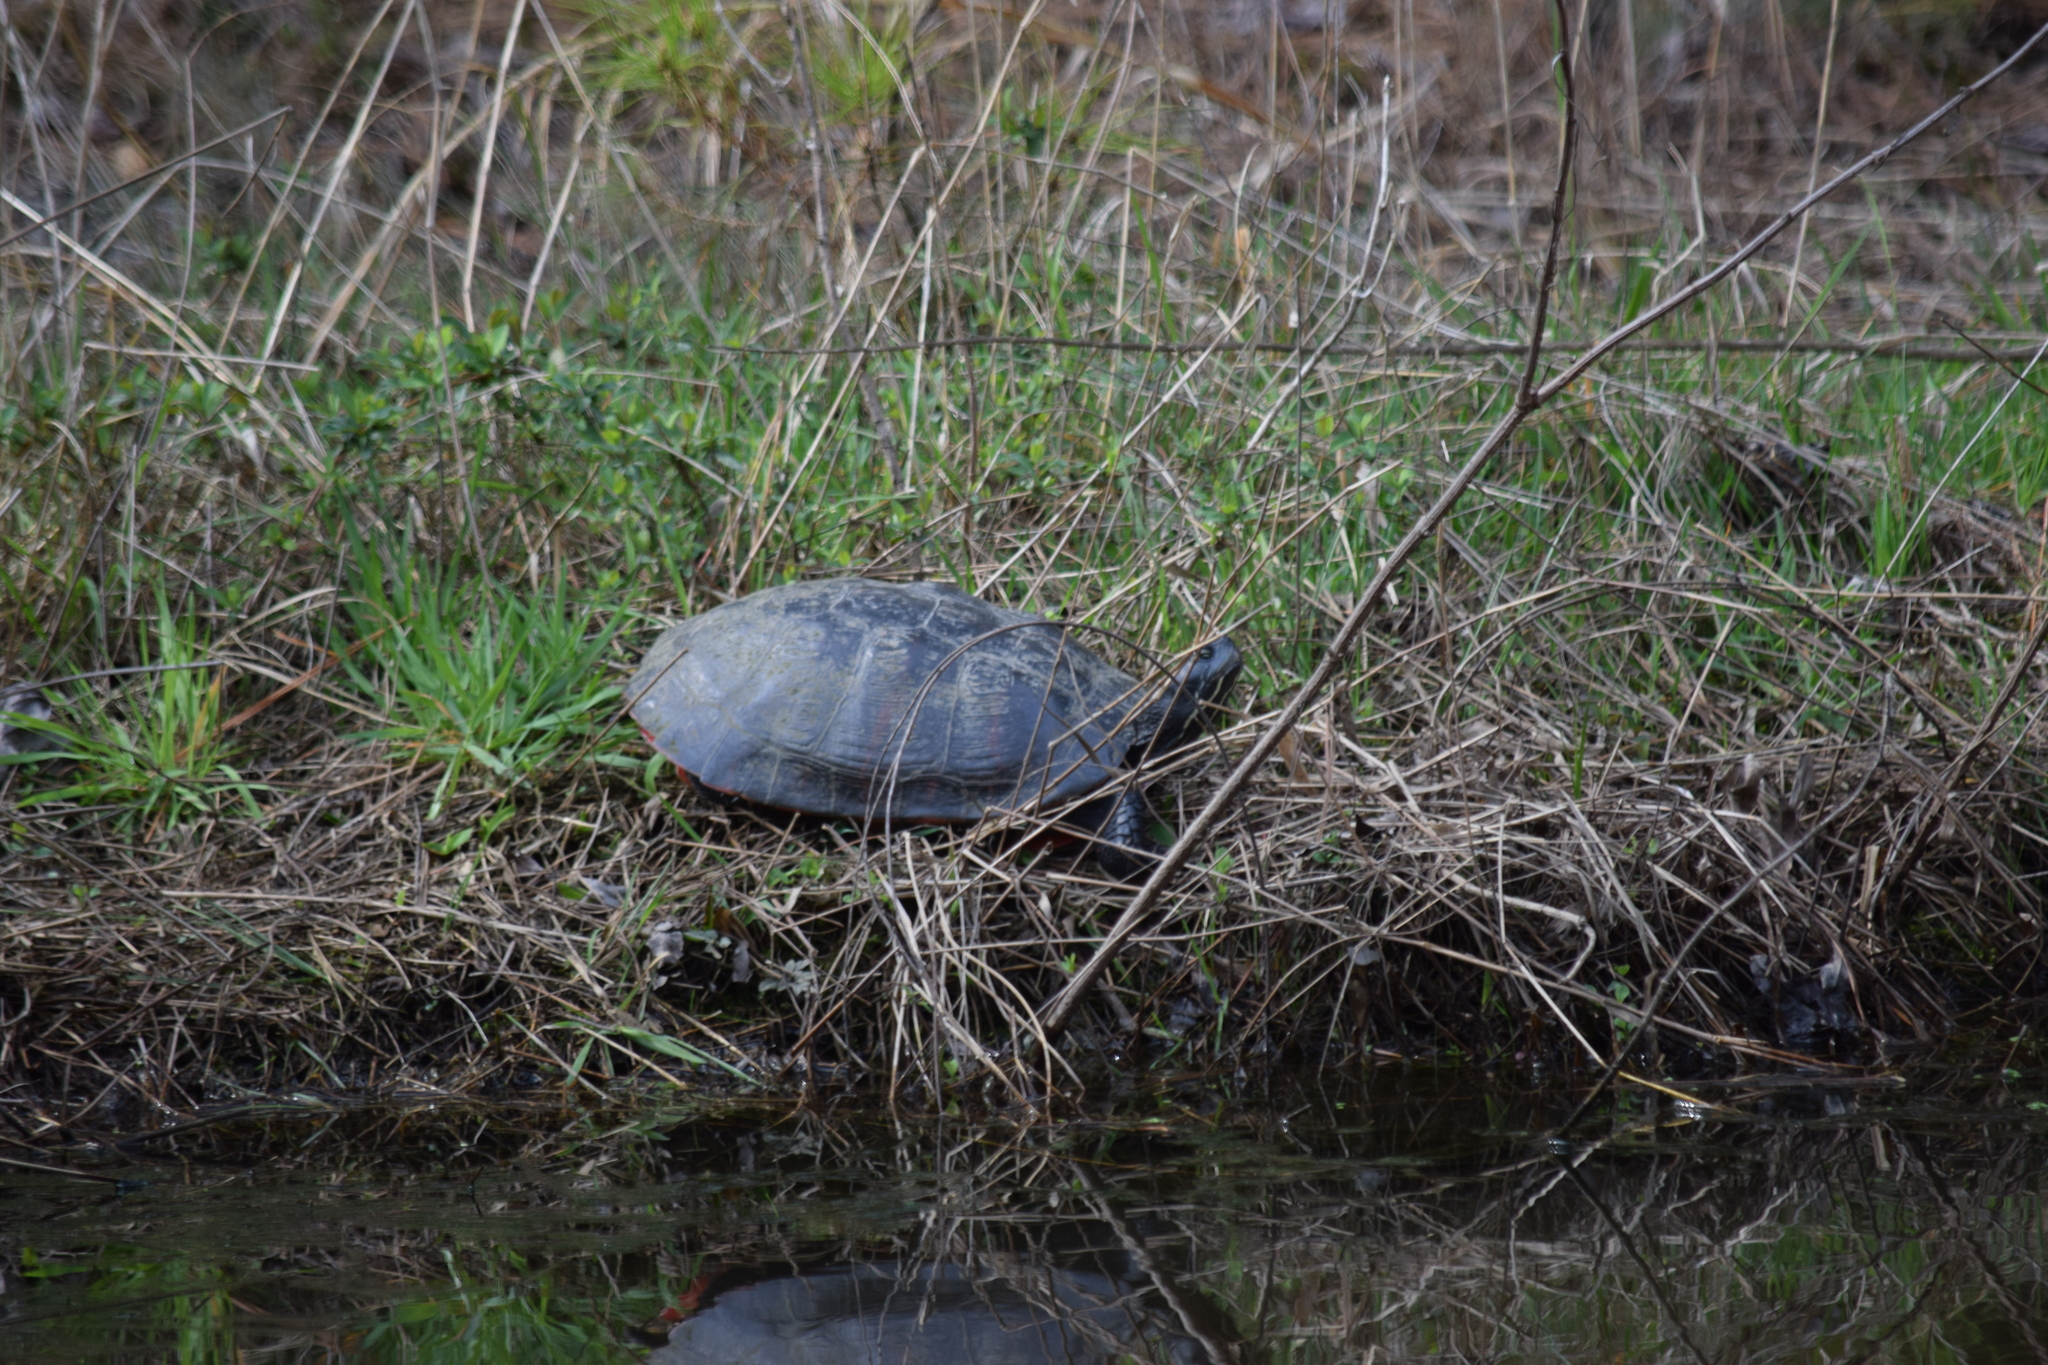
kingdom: Animalia
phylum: Chordata
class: Testudines
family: Emydidae
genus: Pseudemys
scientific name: Pseudemys rubriventris
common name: American red-bellied turtle
